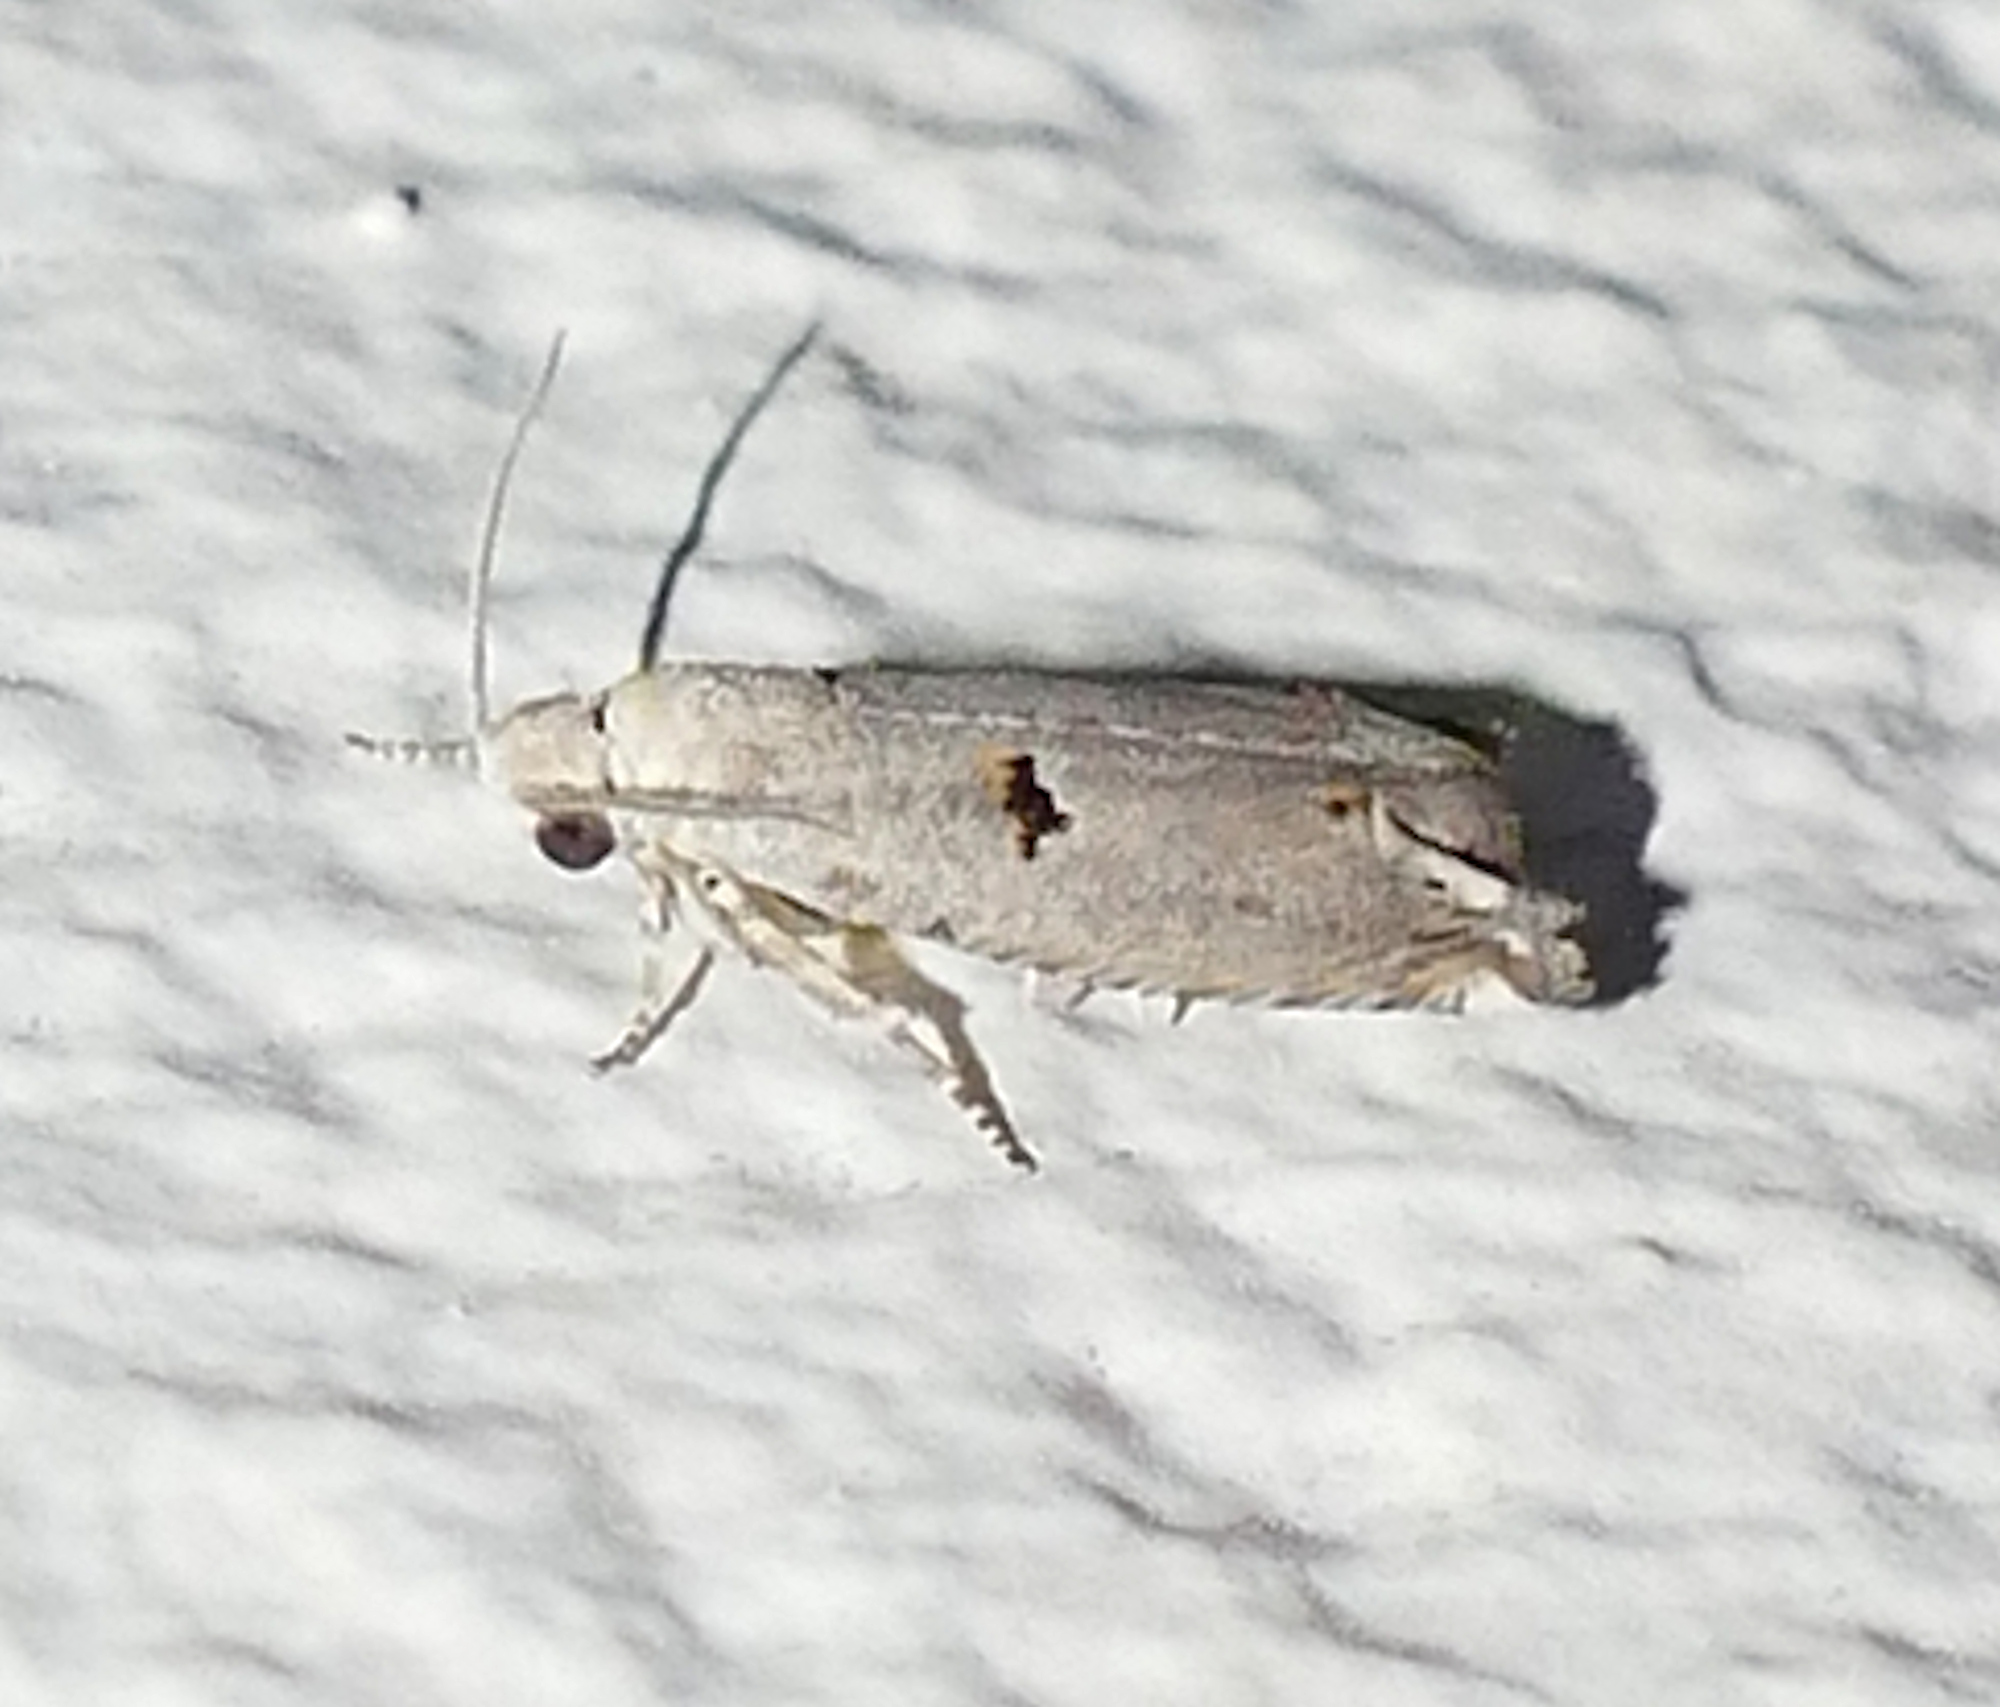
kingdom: Animalia
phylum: Arthropoda
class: Insecta
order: Lepidoptera
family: Tortricidae
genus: Epiblema
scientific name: Epiblema praesumptiosa
